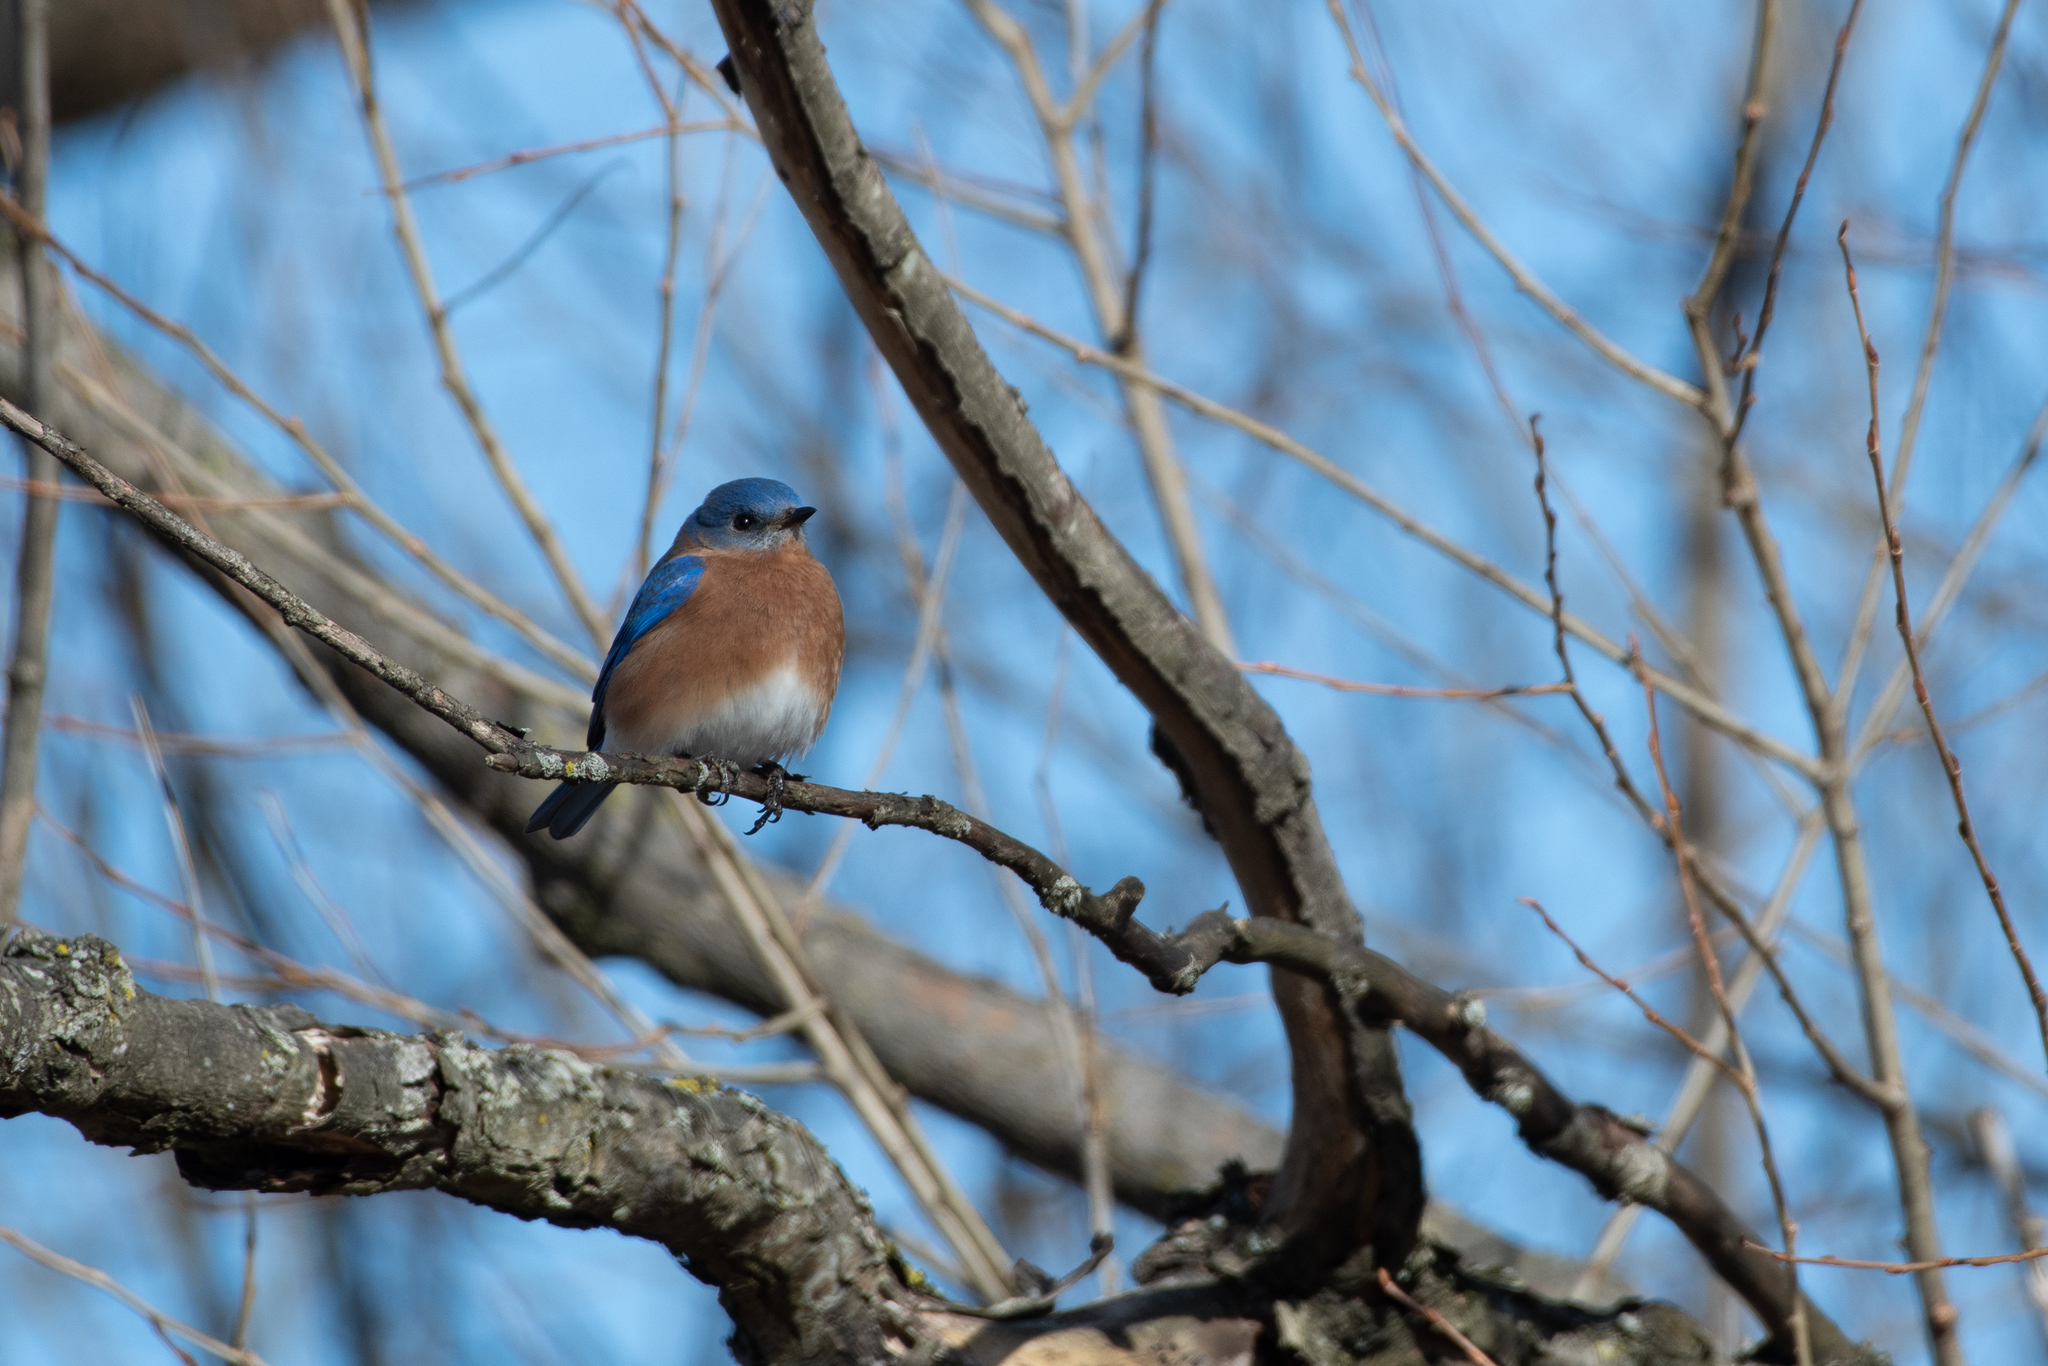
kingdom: Animalia
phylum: Chordata
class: Aves
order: Passeriformes
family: Turdidae
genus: Sialia
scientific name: Sialia sialis
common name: Eastern bluebird
